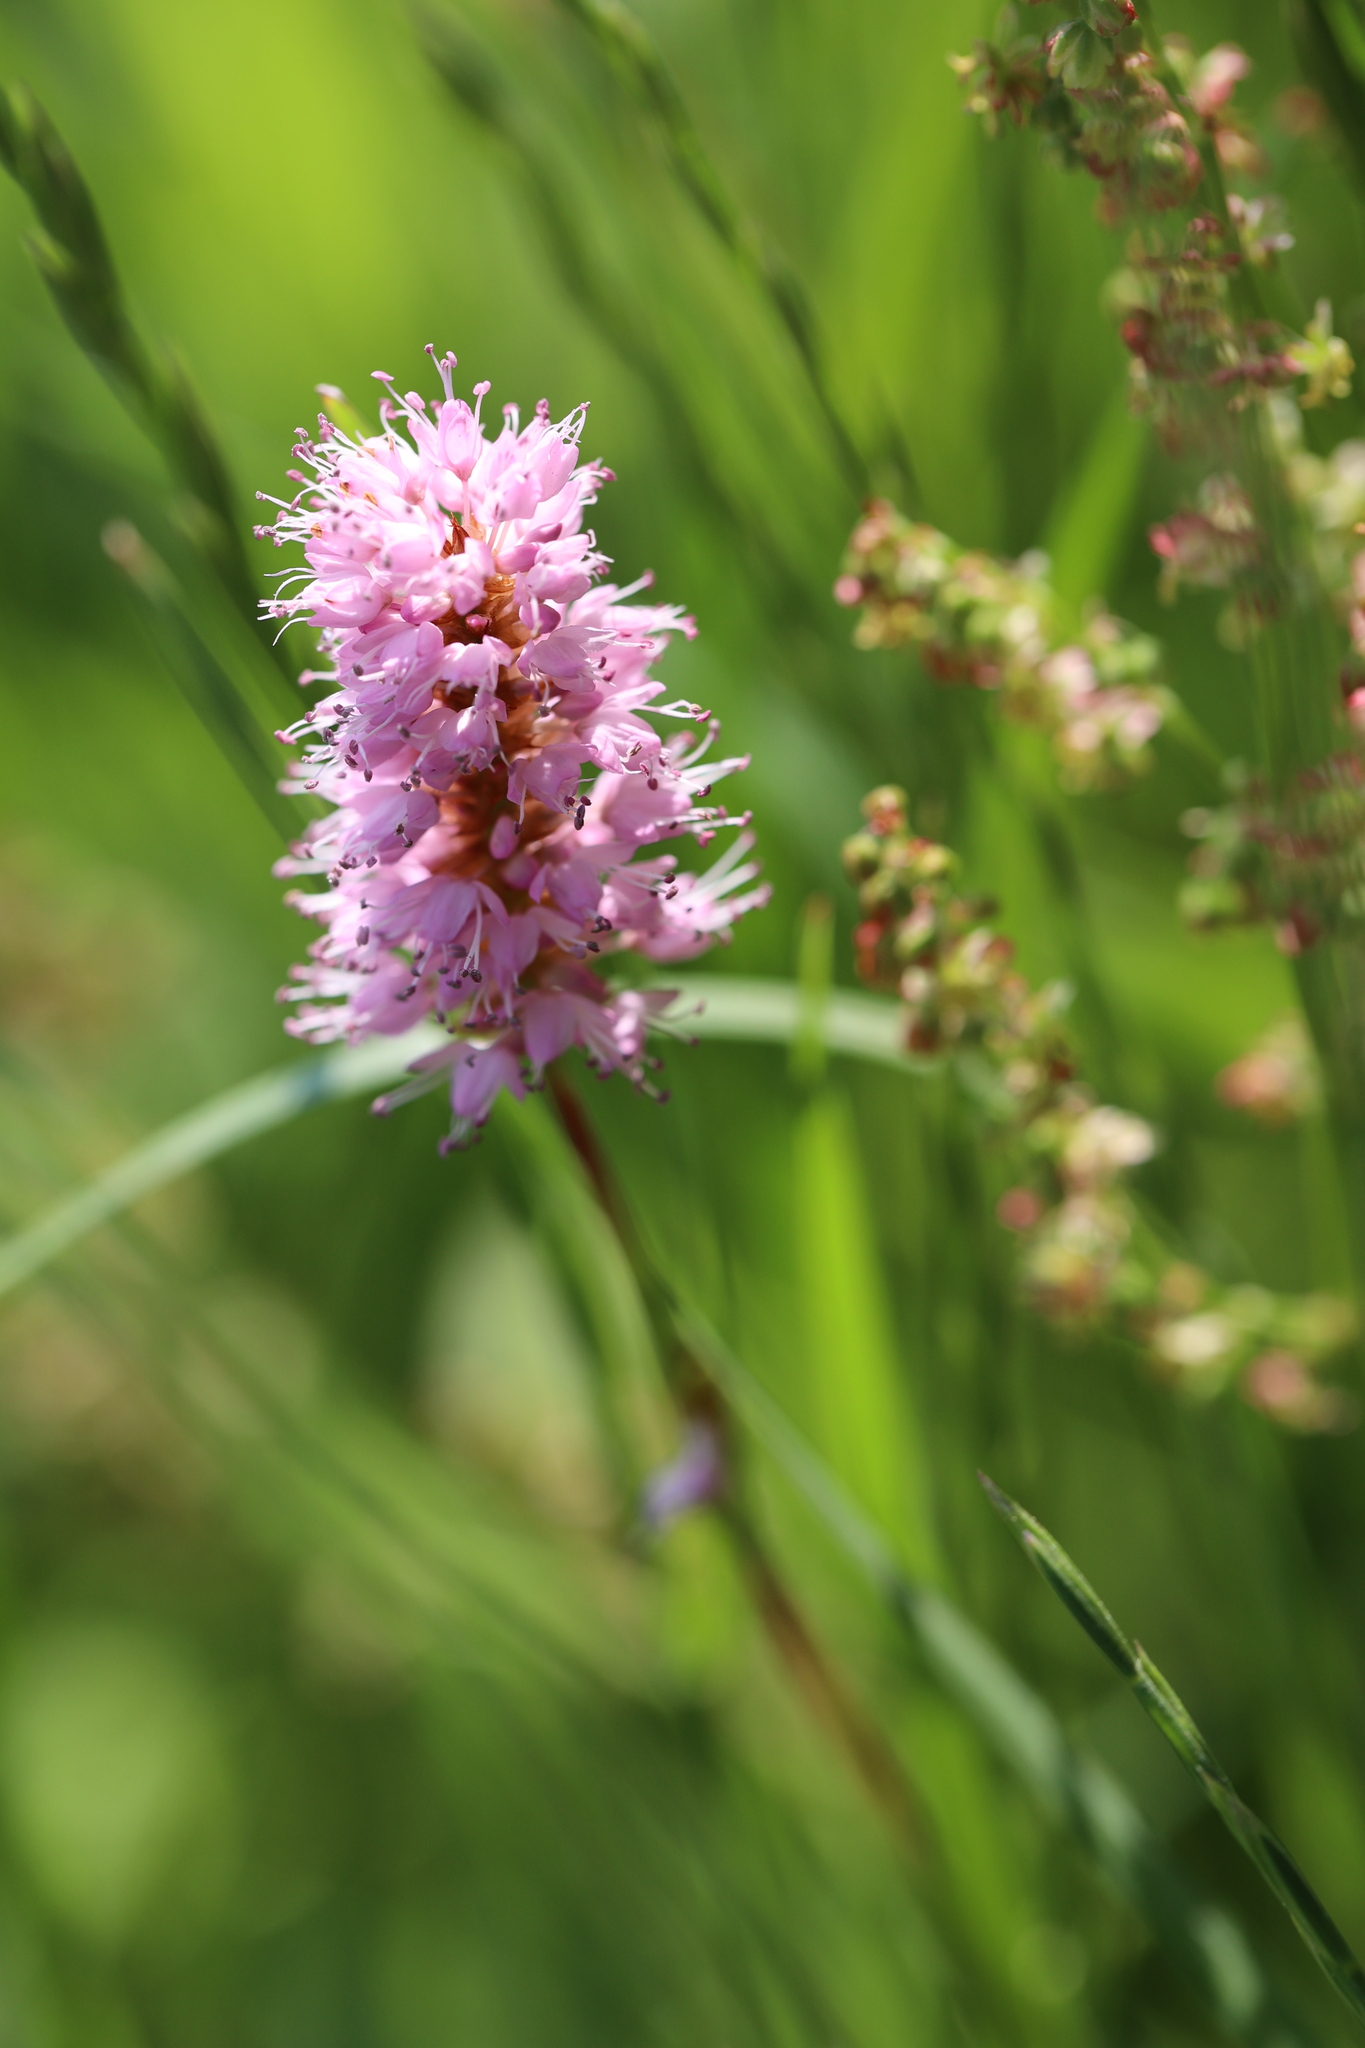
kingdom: Plantae
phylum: Tracheophyta
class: Magnoliopsida
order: Caryophyllales
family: Polygonaceae
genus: Bistorta
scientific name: Bistorta officinalis
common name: Common bistort
